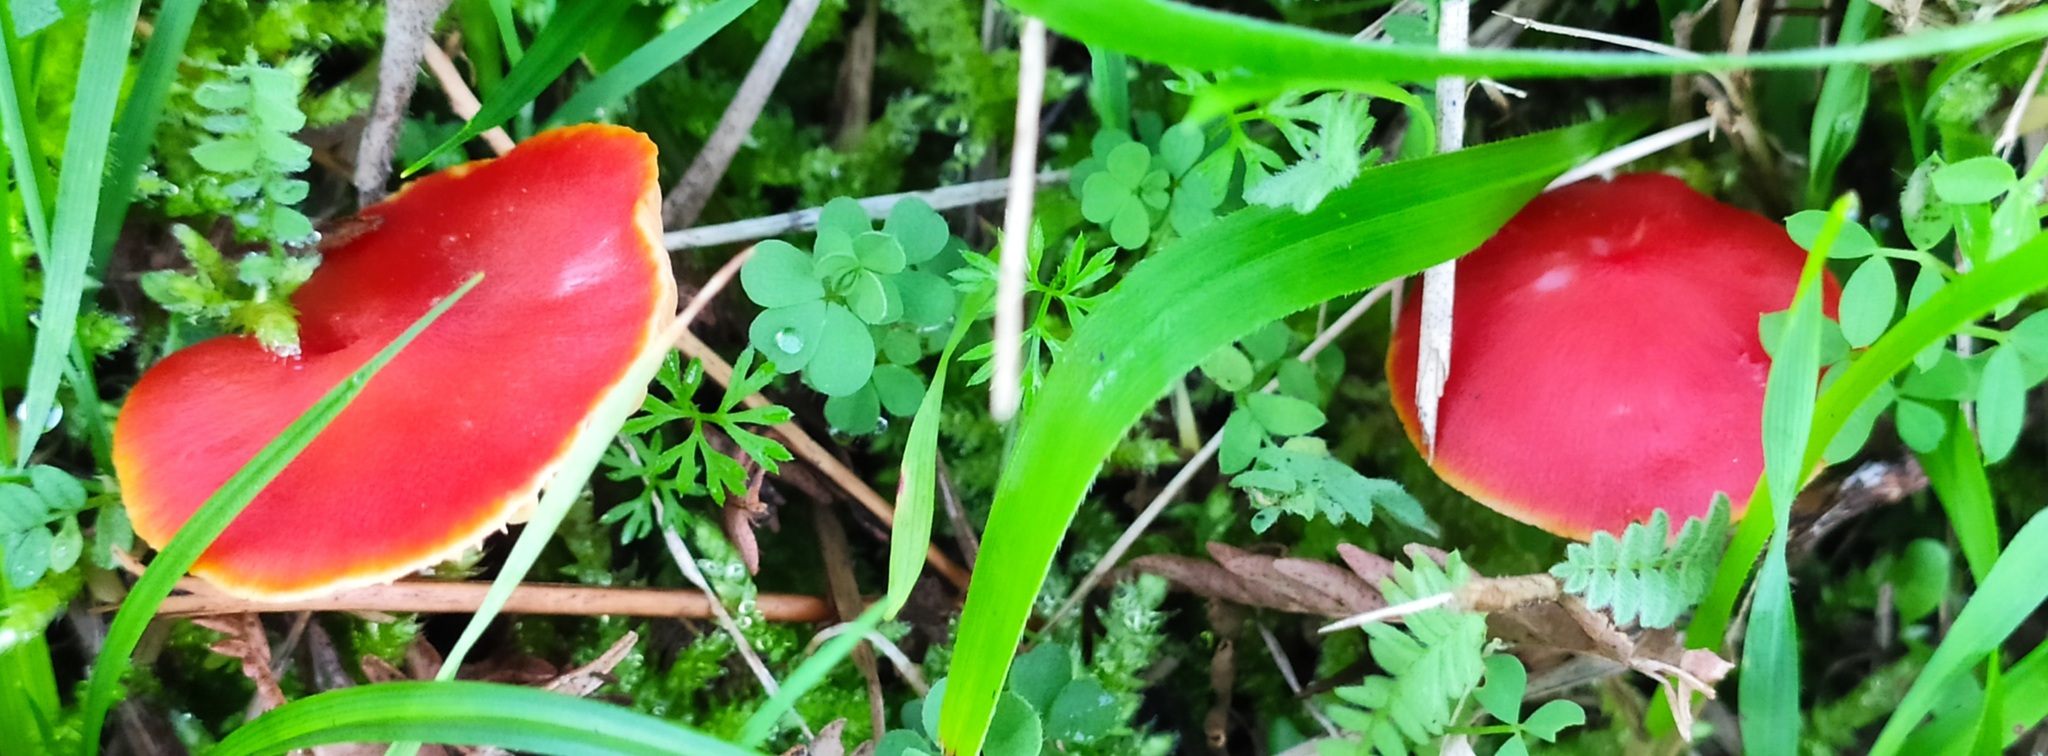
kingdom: Fungi
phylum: Basidiomycota
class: Agaricomycetes
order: Agaricales
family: Hygrophoraceae
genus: Hygrocybe
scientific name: Hygrocybe coccinea
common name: Scarlet hood
